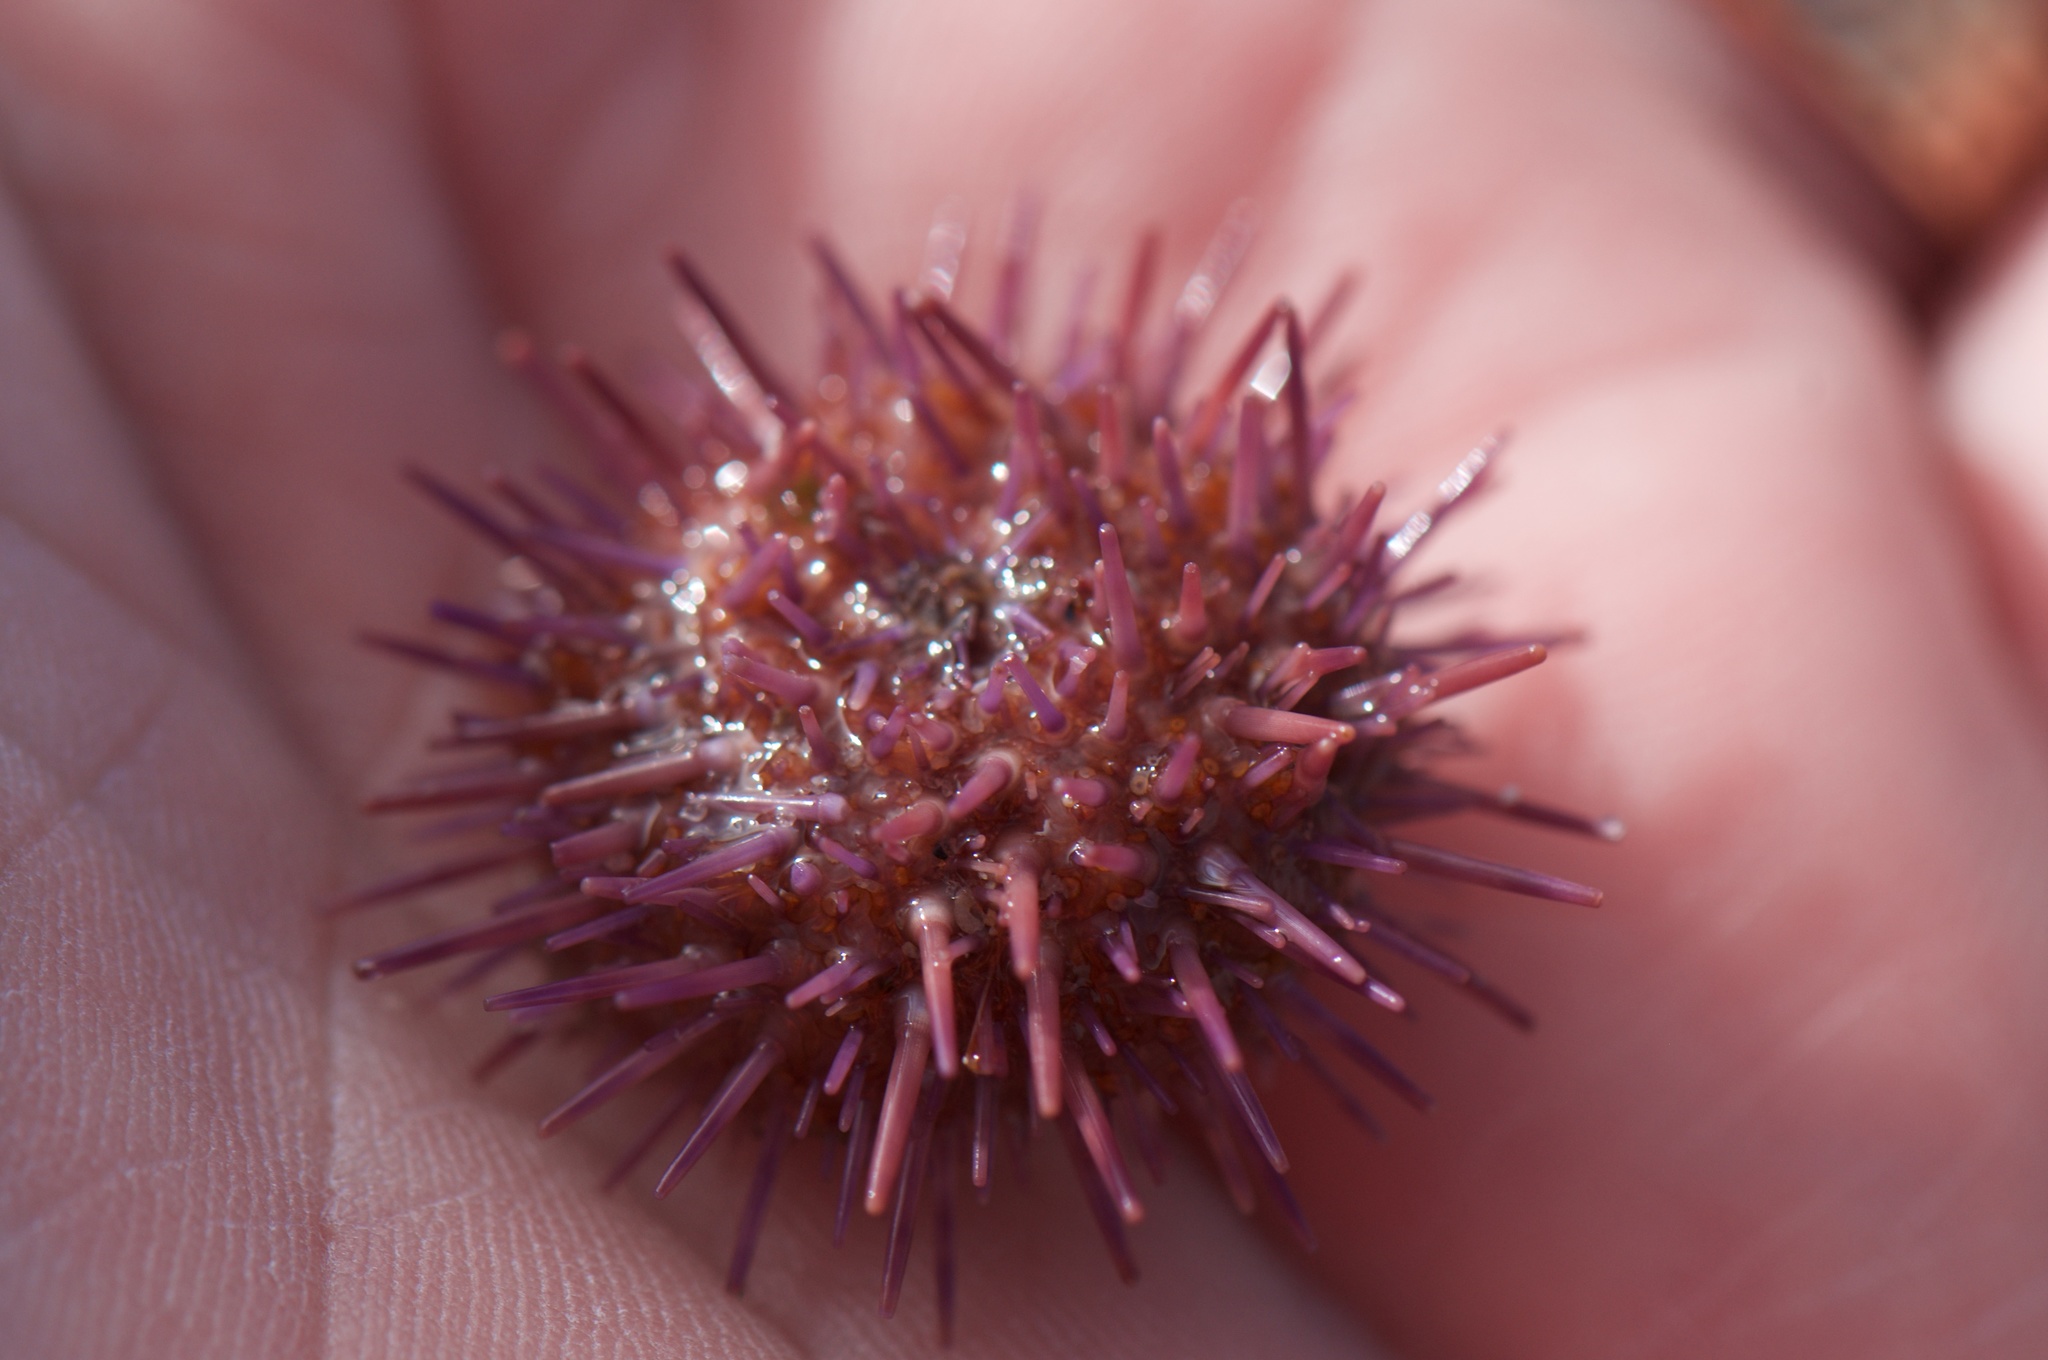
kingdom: Animalia
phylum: Echinodermata
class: Echinoidea
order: Camarodonta
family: Strongylocentrotidae
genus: Strongylocentrotus
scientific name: Strongylocentrotus purpuratus
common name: Purple sea urchin
